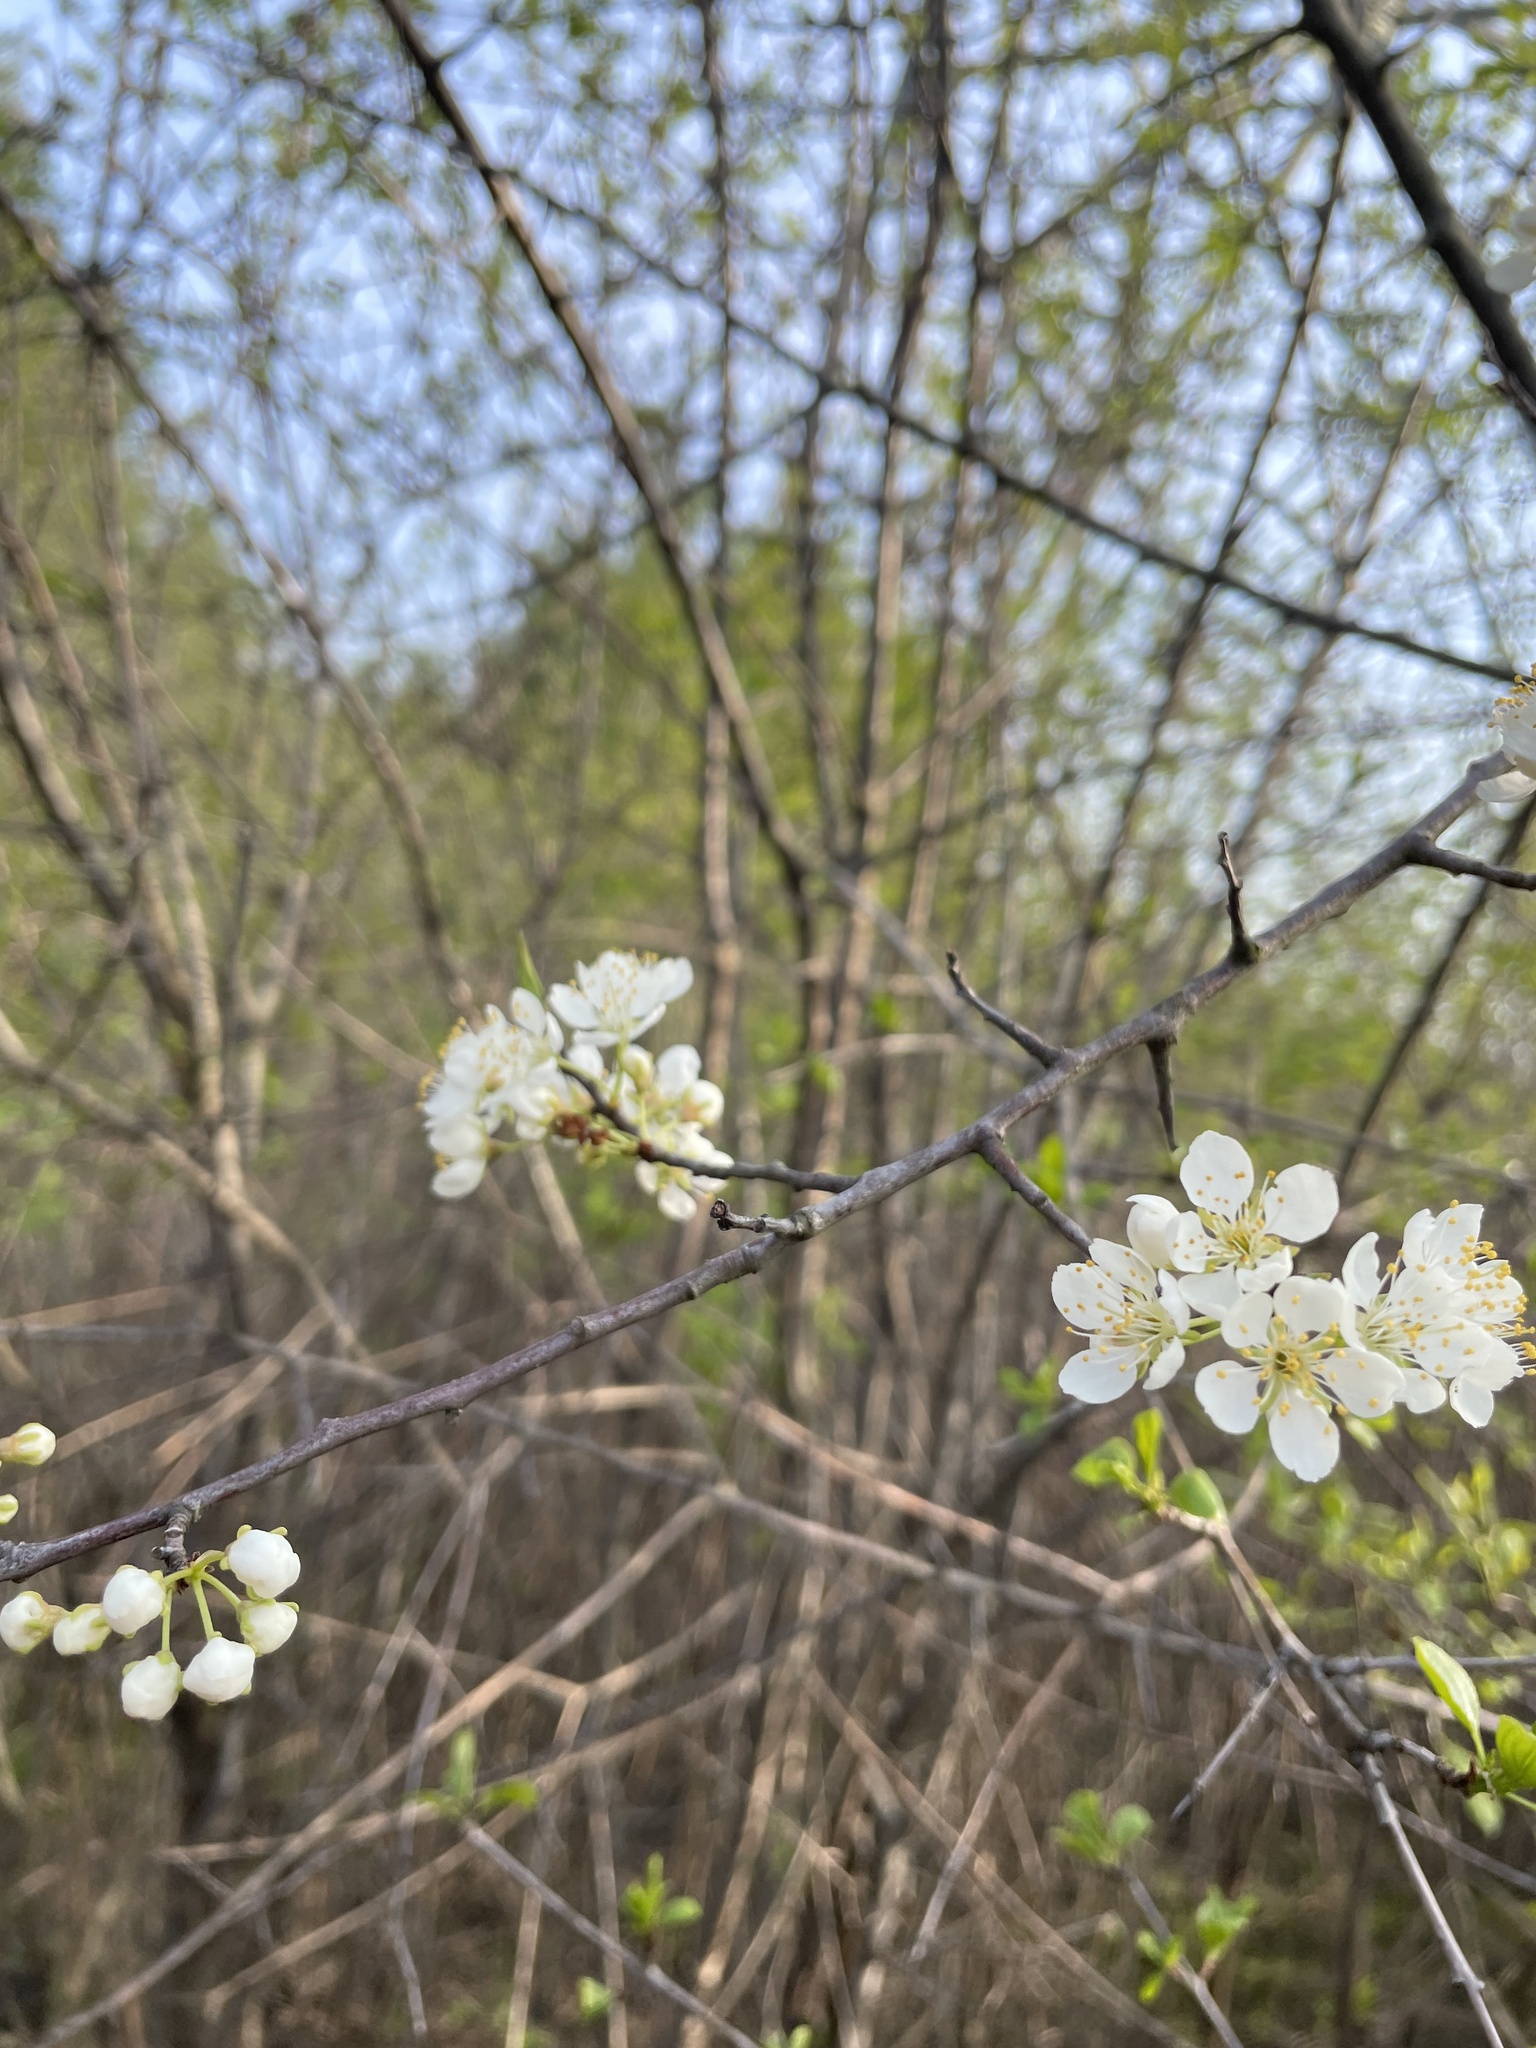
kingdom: Plantae
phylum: Tracheophyta
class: Magnoliopsida
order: Rosales
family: Rosaceae
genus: Prunus
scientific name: Prunus americana
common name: American plum
